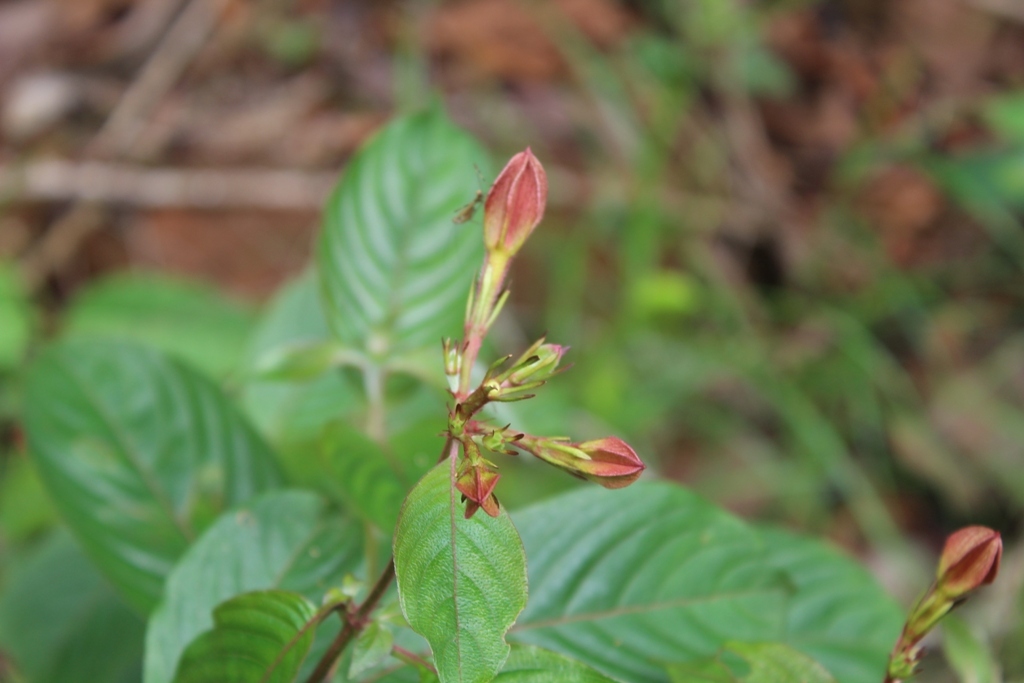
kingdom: Plantae
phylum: Tracheophyta
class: Magnoliopsida
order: Gentianales
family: Rubiaceae
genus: Mussaenda
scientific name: Mussaenda elegans
